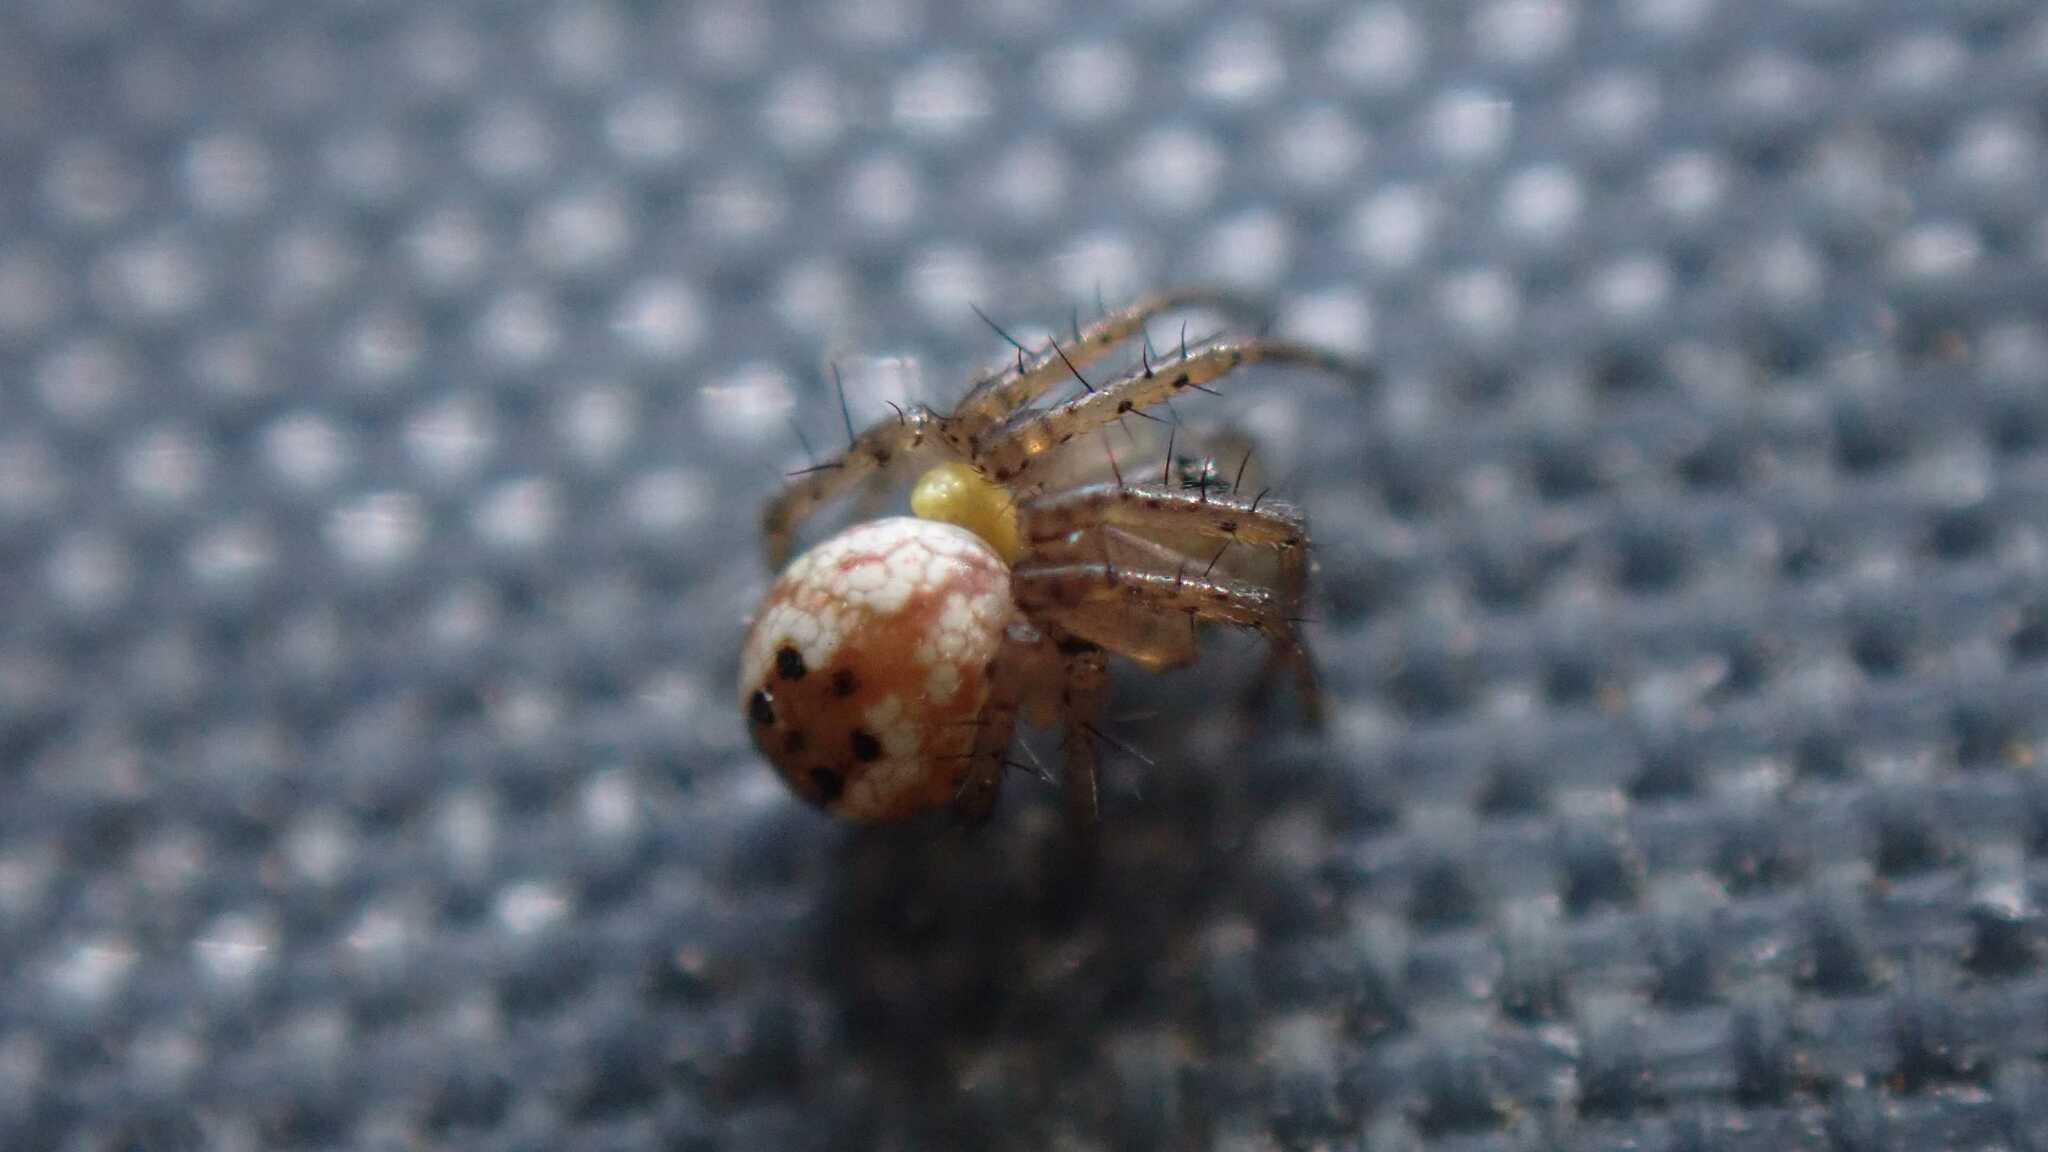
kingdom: Animalia
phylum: Arthropoda
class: Arachnida
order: Araneae
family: Araneidae
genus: Mangora
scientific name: Mangora acalypha
